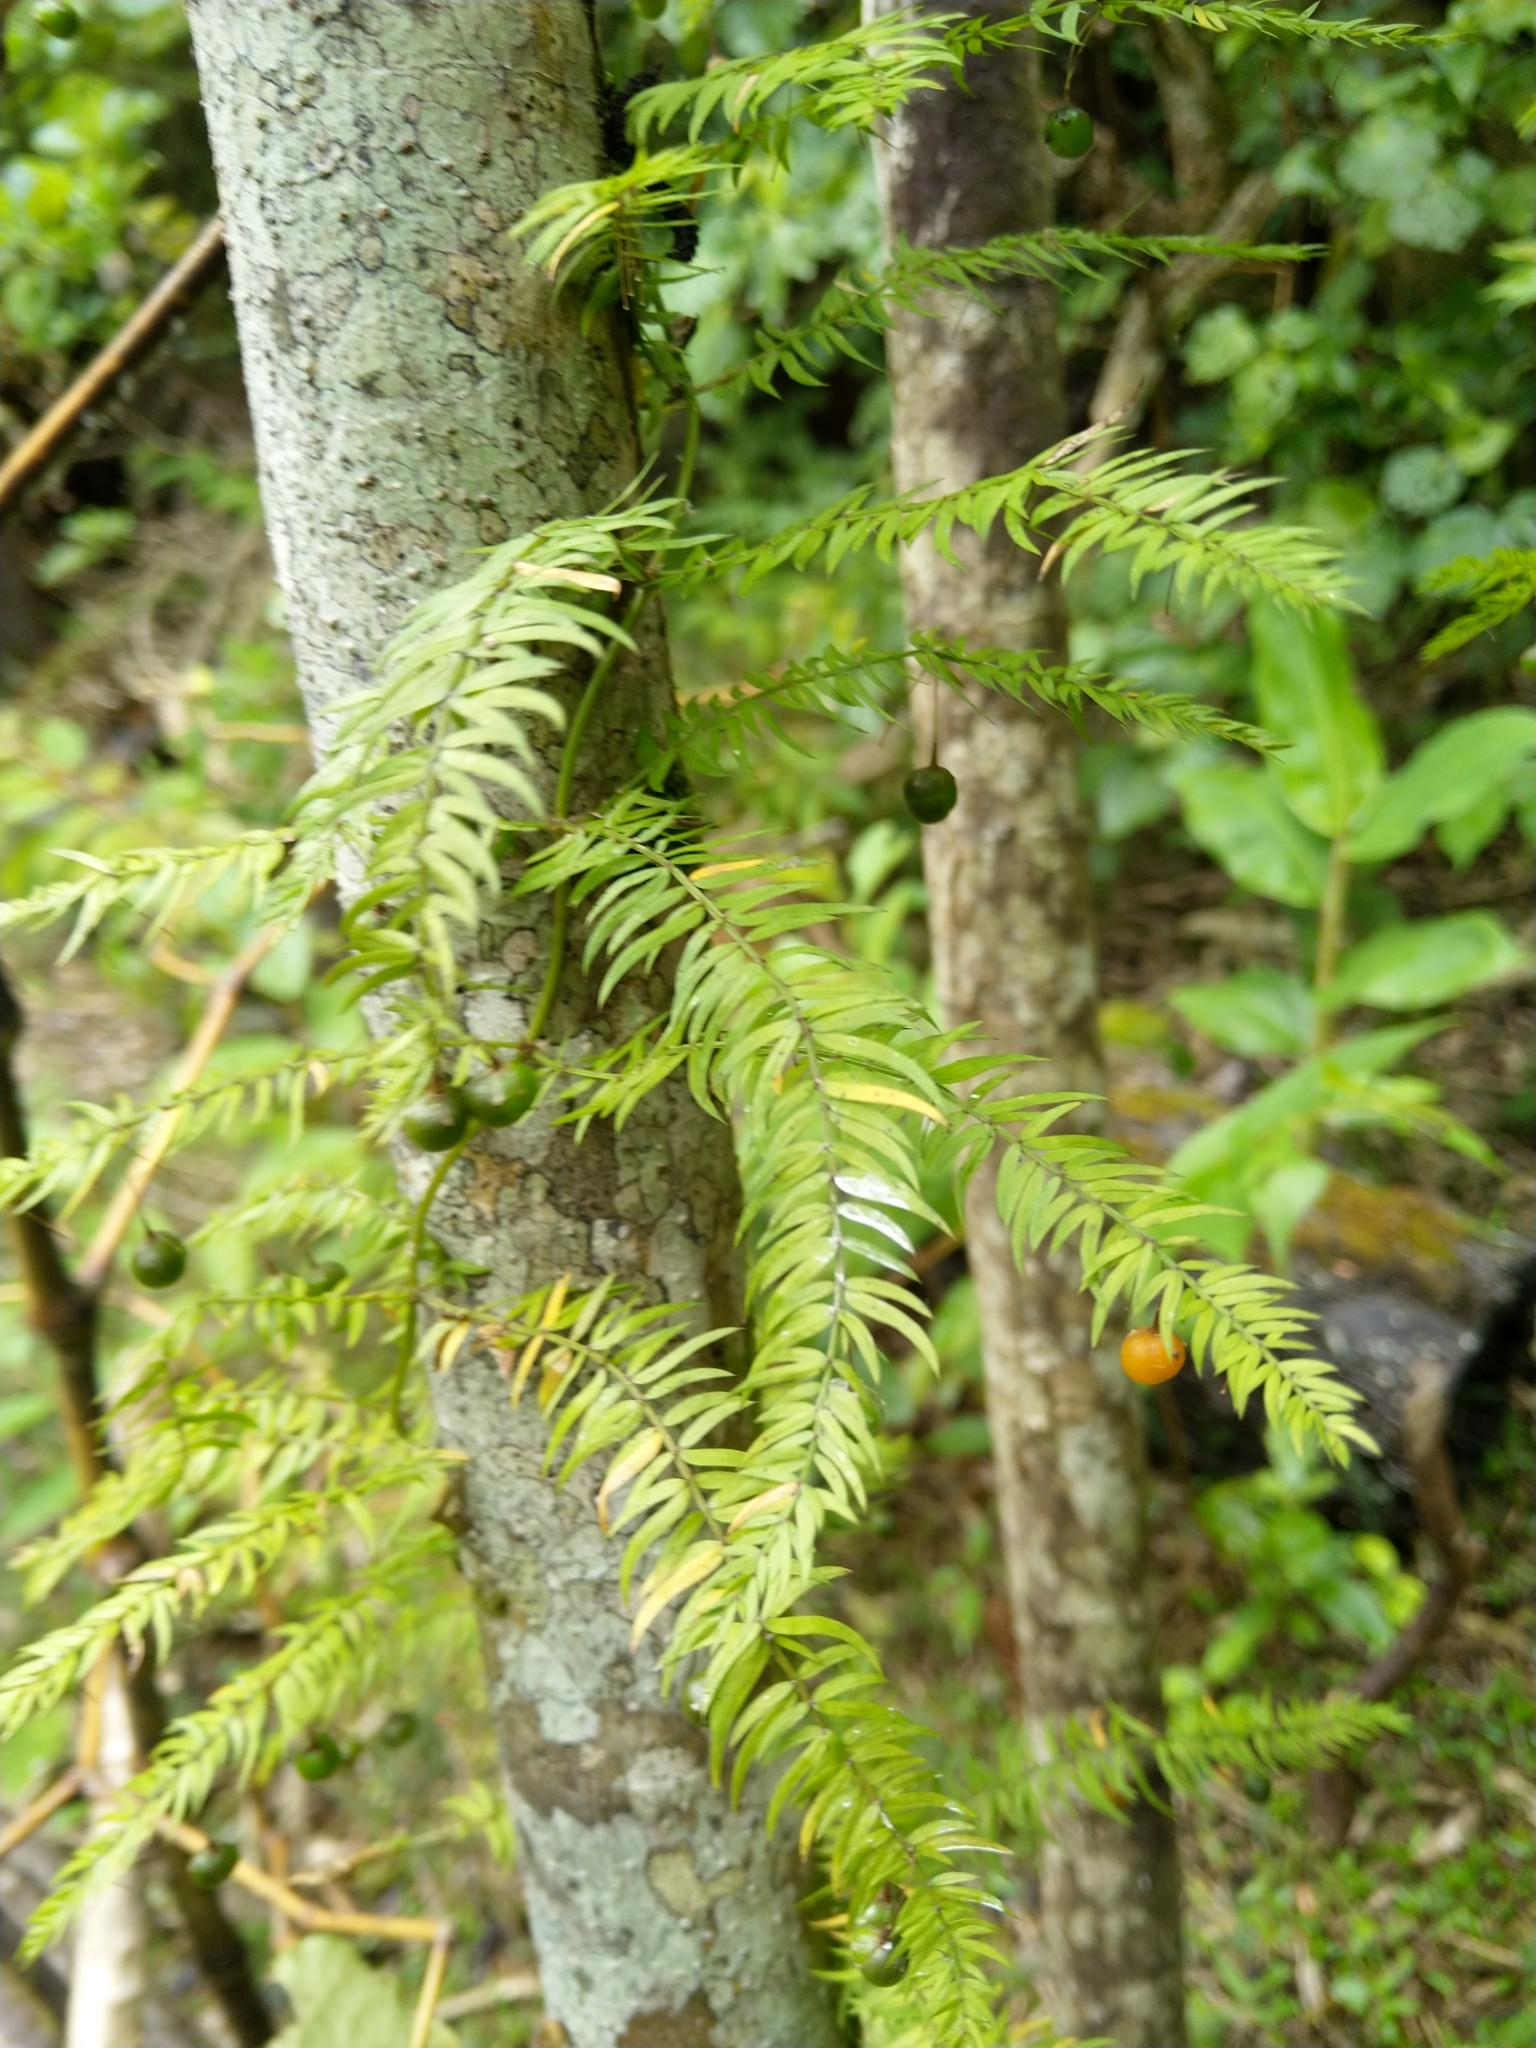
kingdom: Plantae
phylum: Tracheophyta
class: Liliopsida
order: Asparagales
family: Asparagaceae
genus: Asparagus
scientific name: Asparagus scandens
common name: Asparagus-fern
